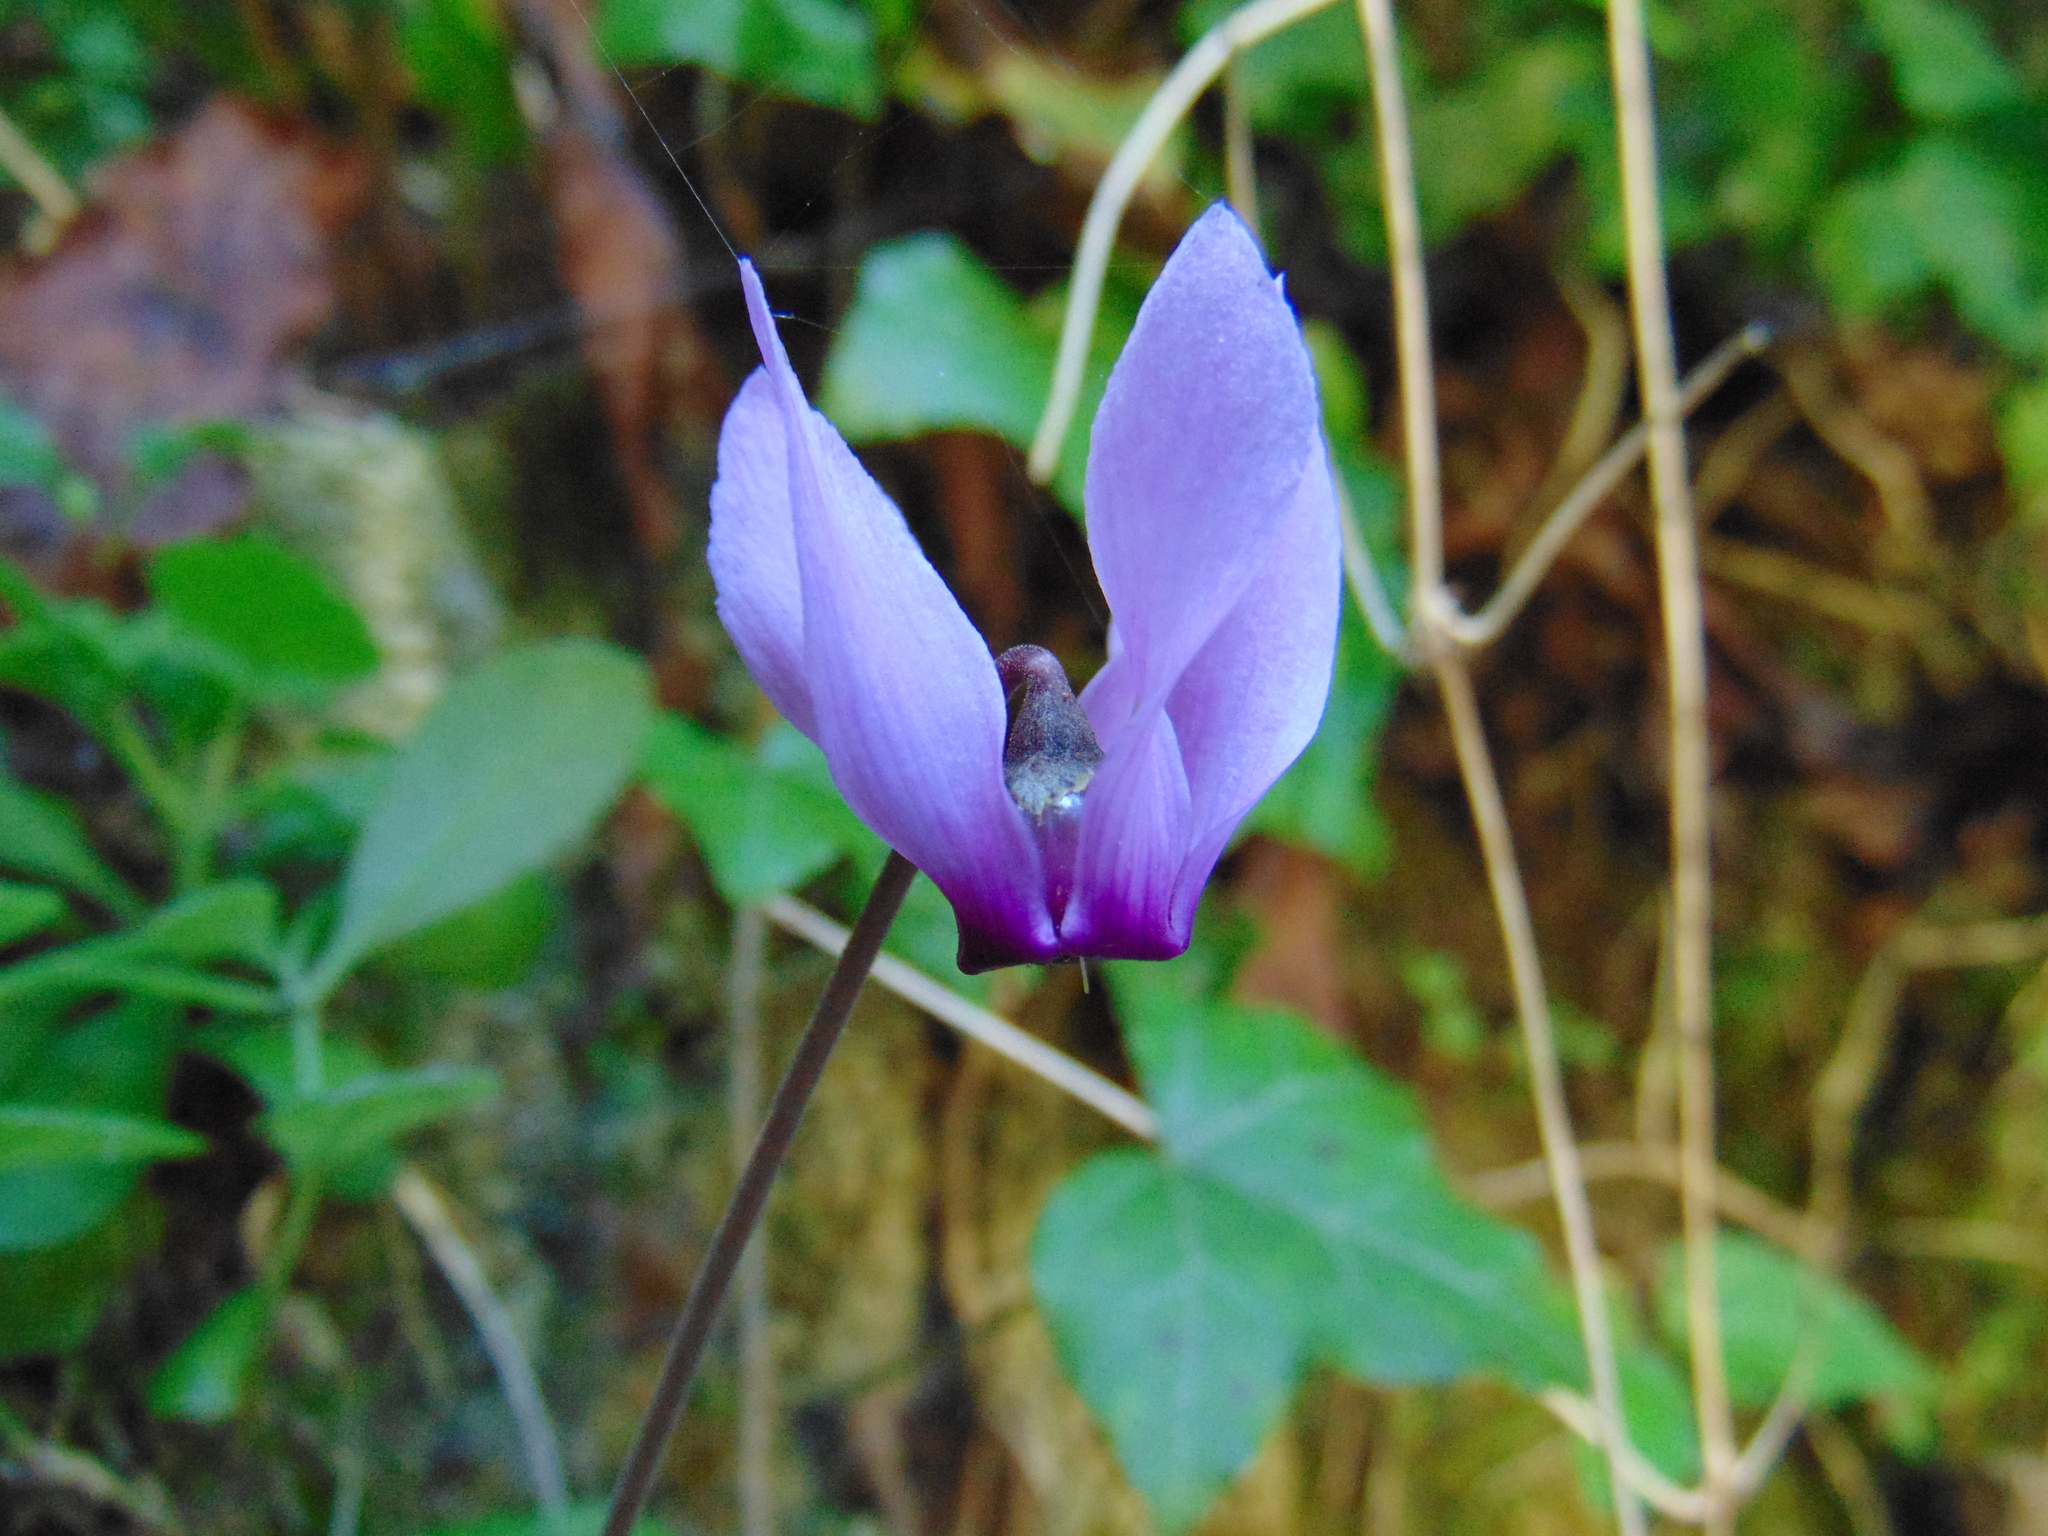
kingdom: Plantae
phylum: Tracheophyta
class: Magnoliopsida
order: Ericales
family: Primulaceae
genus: Cyclamen
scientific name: Cyclamen purpurascens
